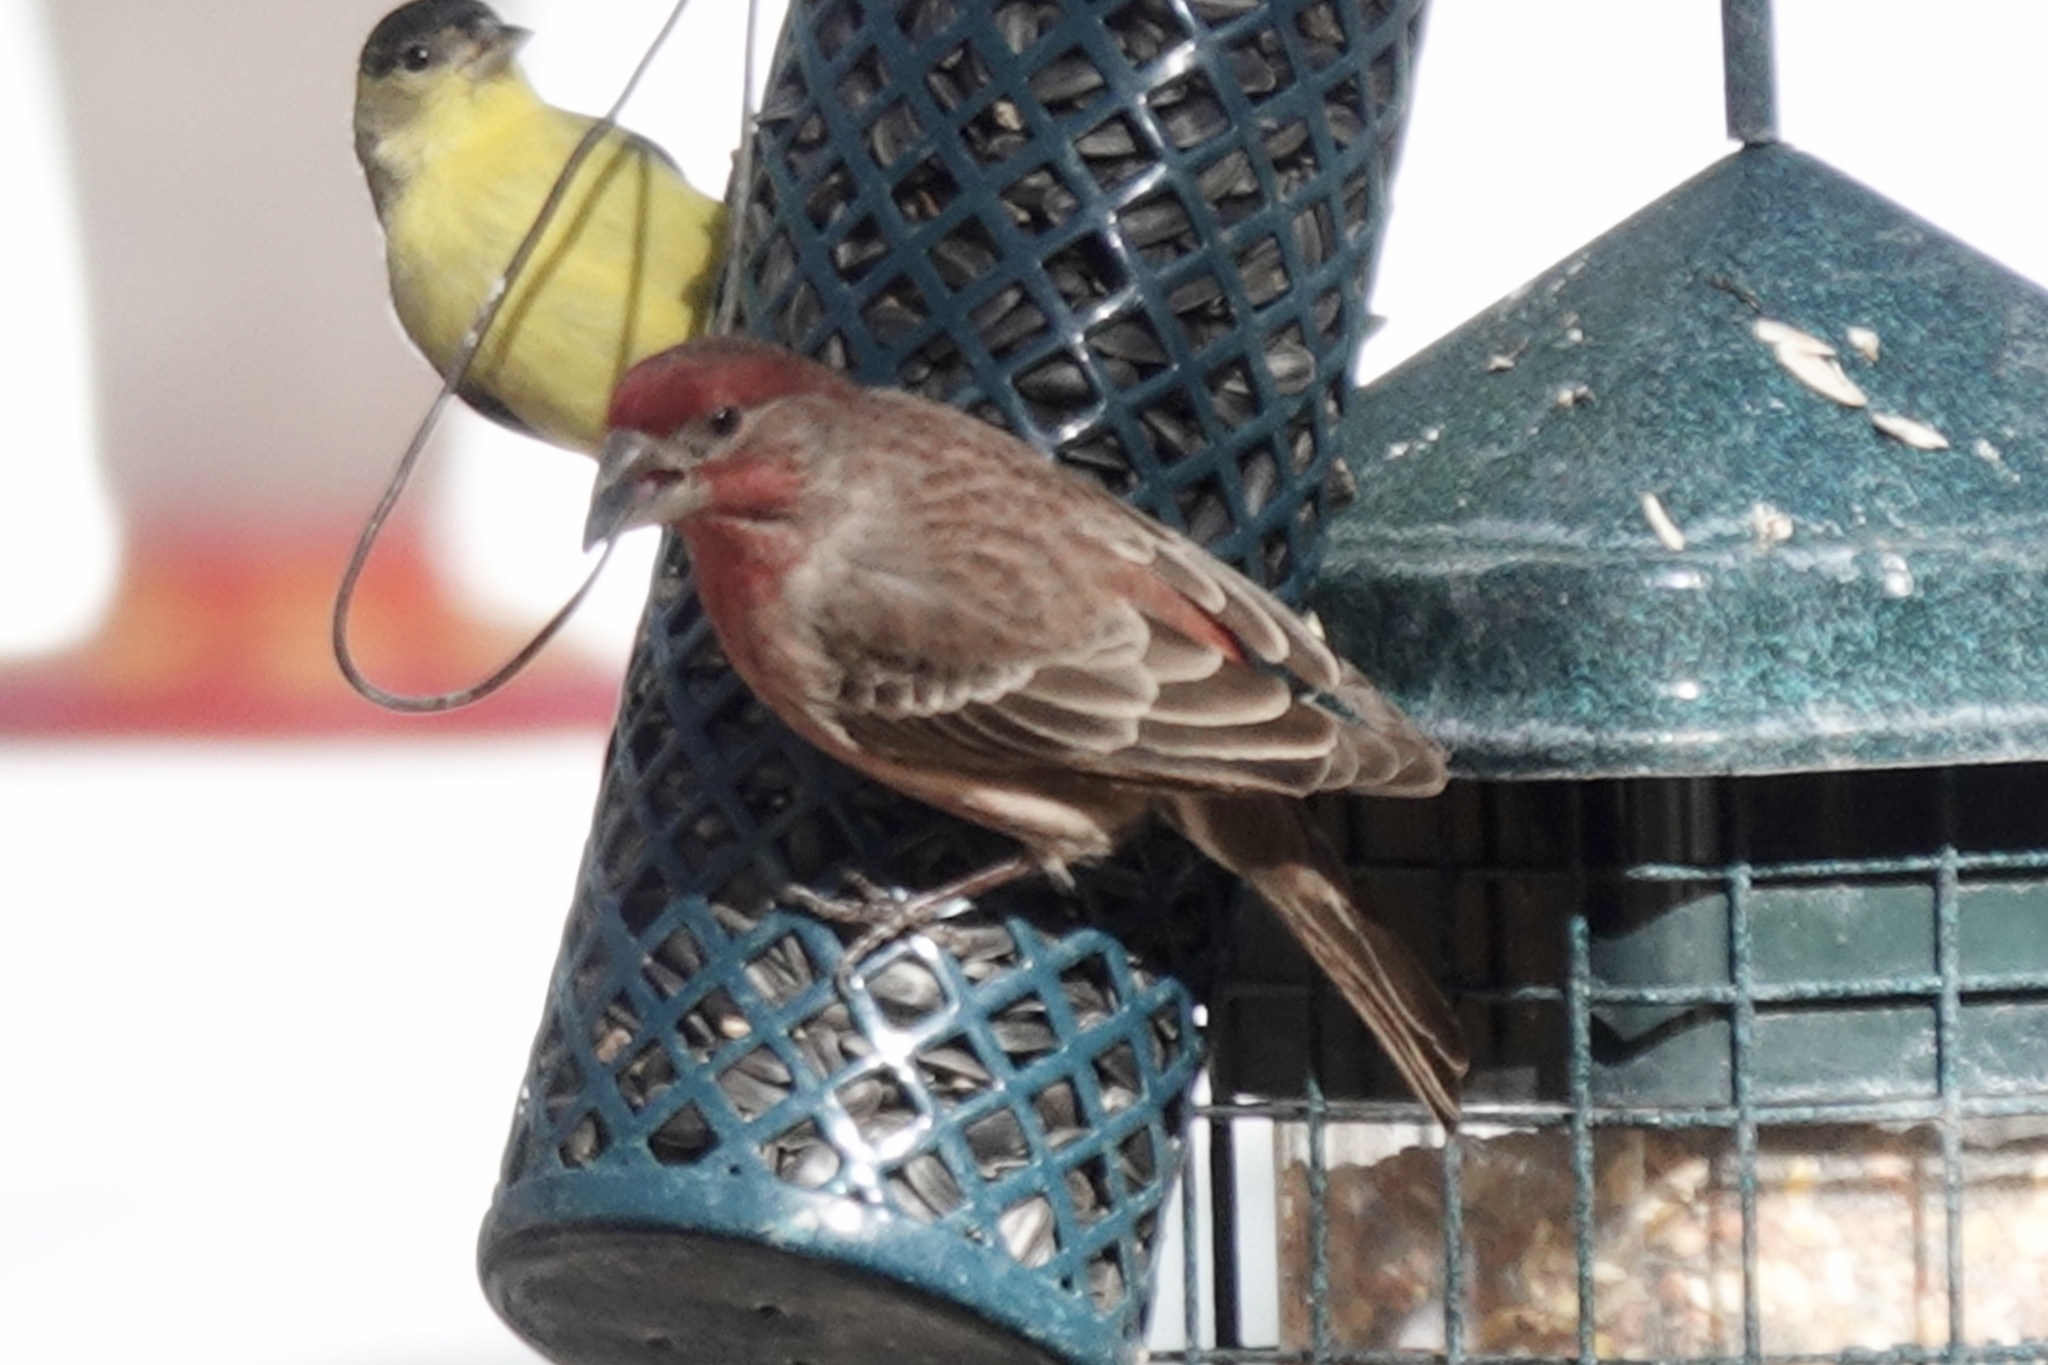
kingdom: Animalia
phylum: Chordata
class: Aves
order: Passeriformes
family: Fringillidae
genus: Haemorhous
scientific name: Haemorhous mexicanus
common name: House finch
